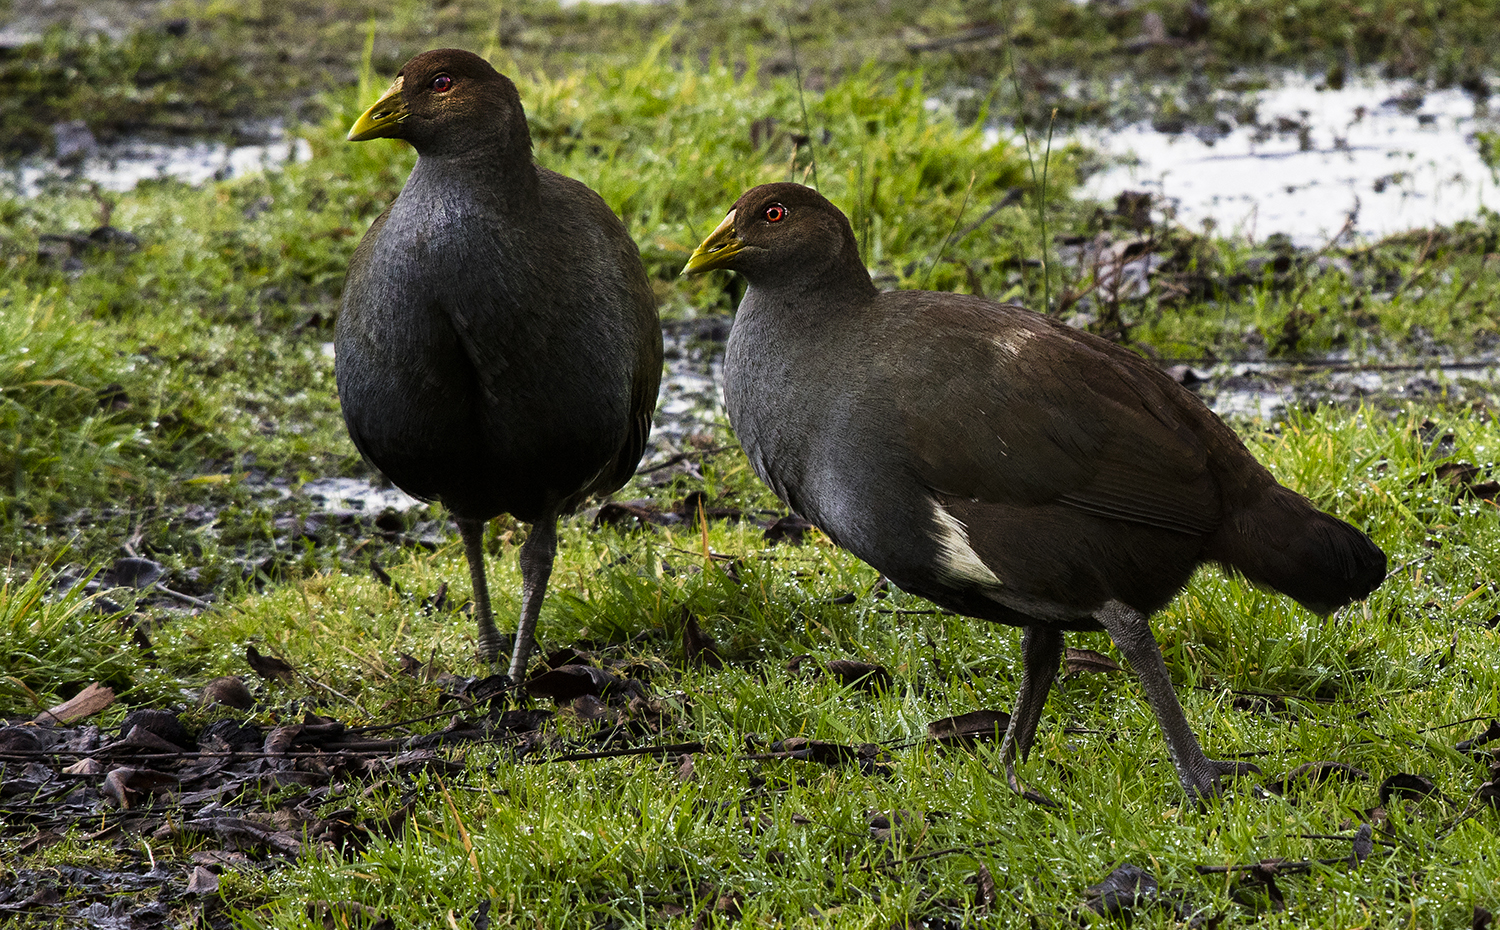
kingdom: Animalia
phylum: Chordata
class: Aves
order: Gruiformes
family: Rallidae
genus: Gallinula
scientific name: Gallinula mortierii
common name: Tasmanian nativehen
